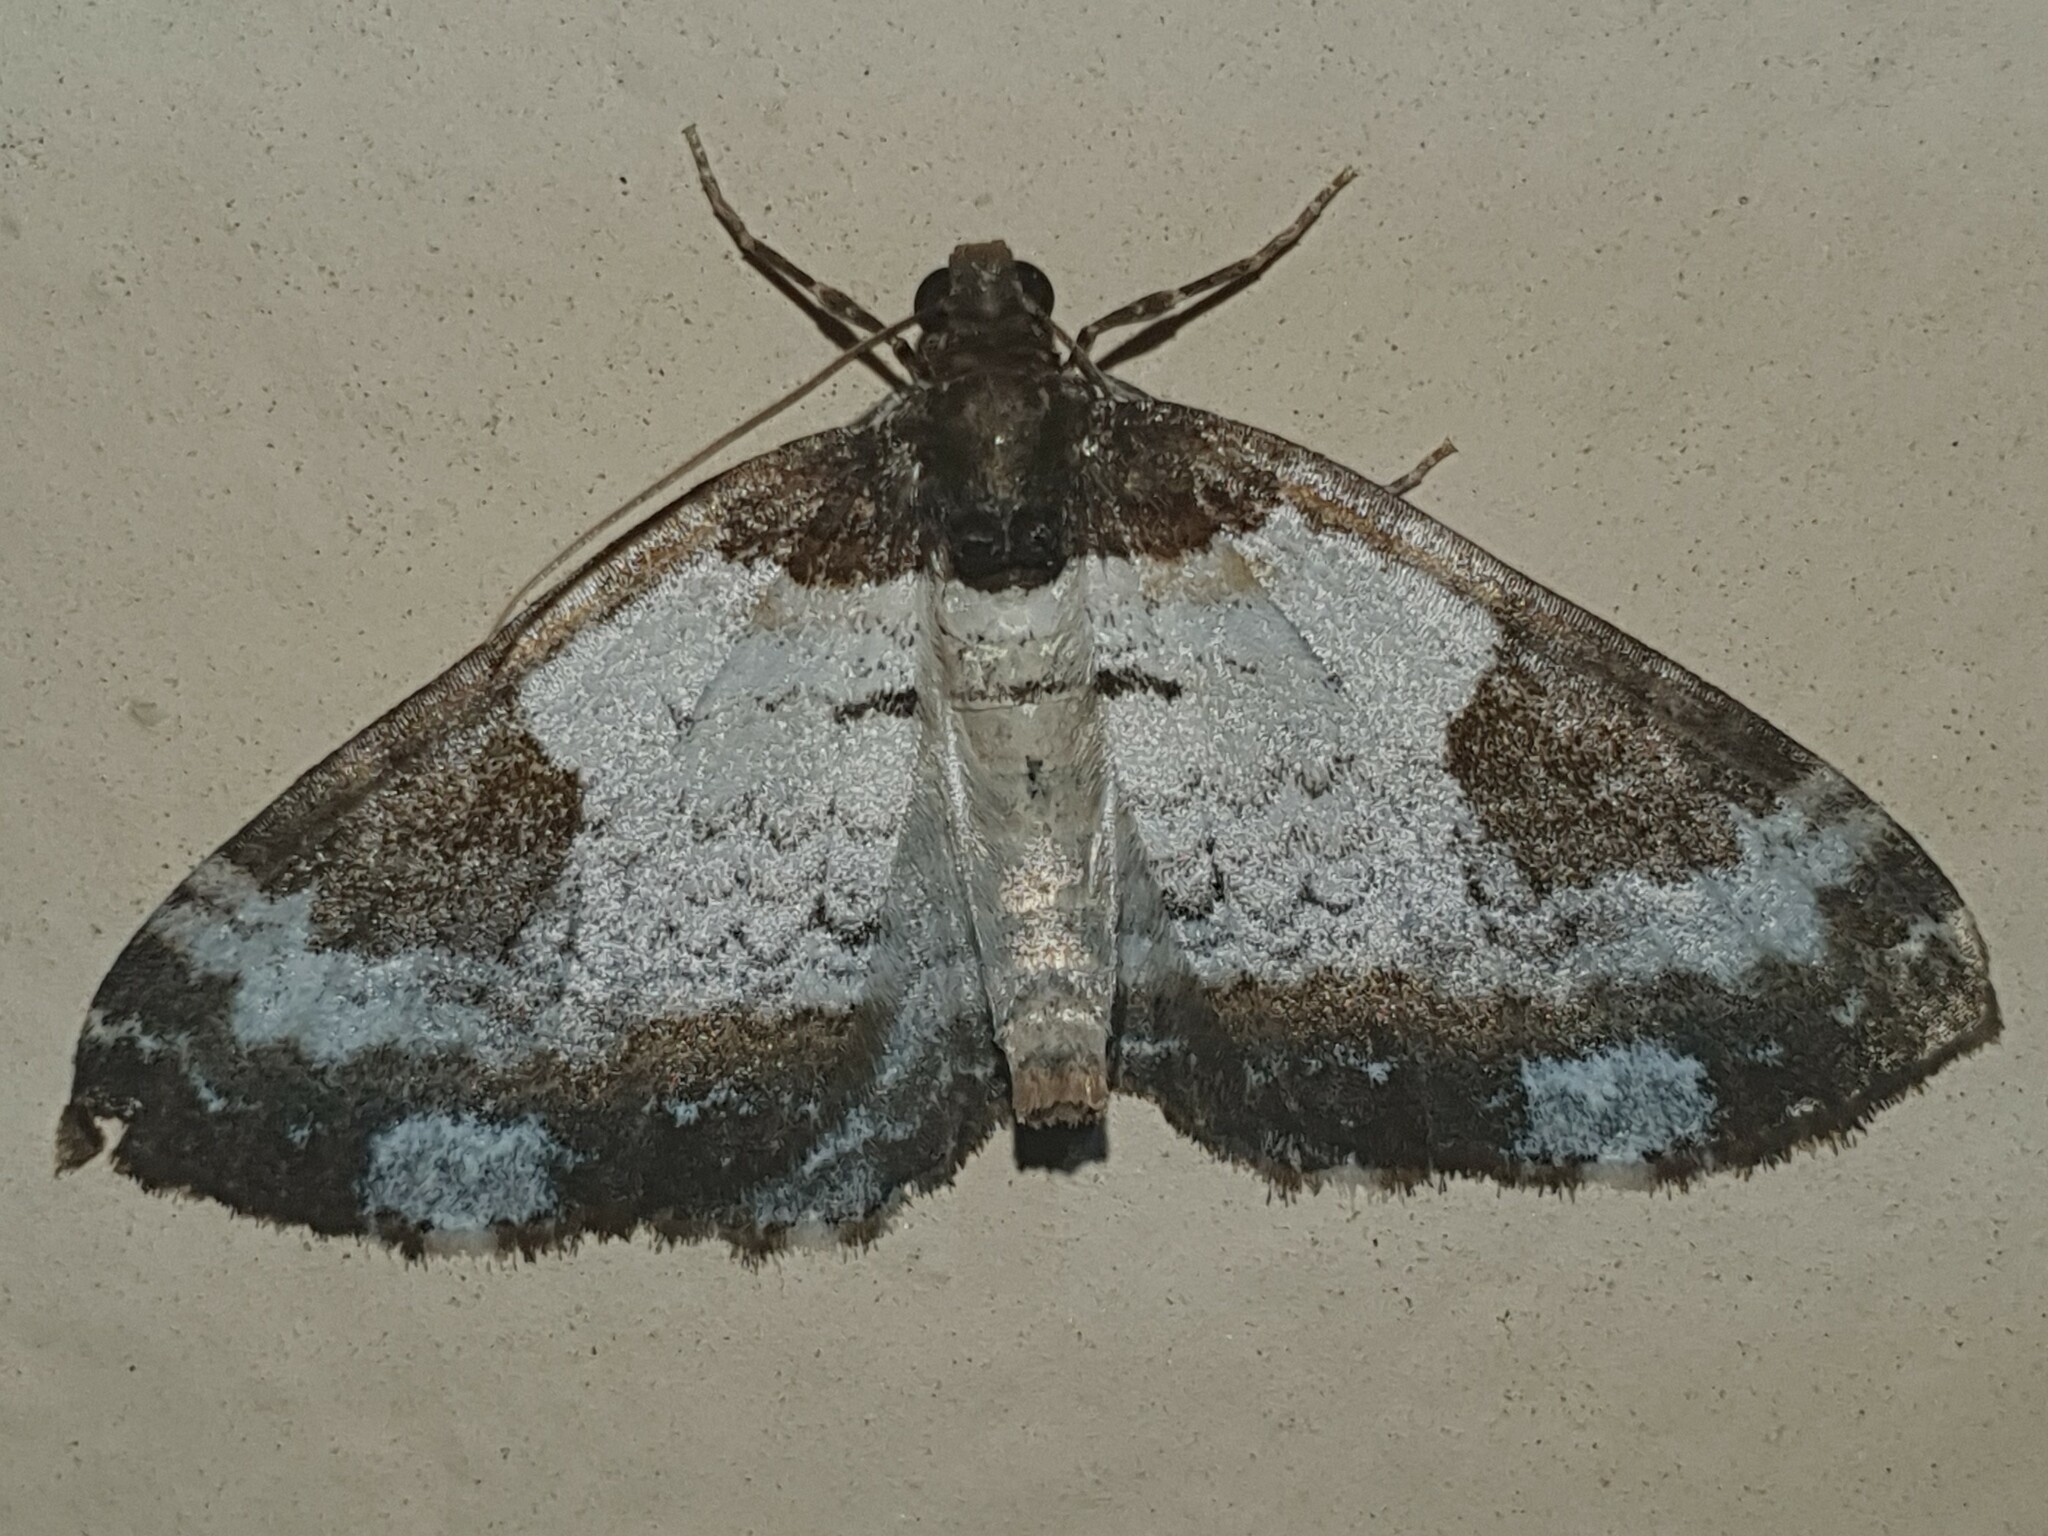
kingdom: Animalia
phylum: Arthropoda
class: Insecta
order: Lepidoptera
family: Geometridae
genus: Melanthia
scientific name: Melanthia procellata
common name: Pretty chalk carpet
